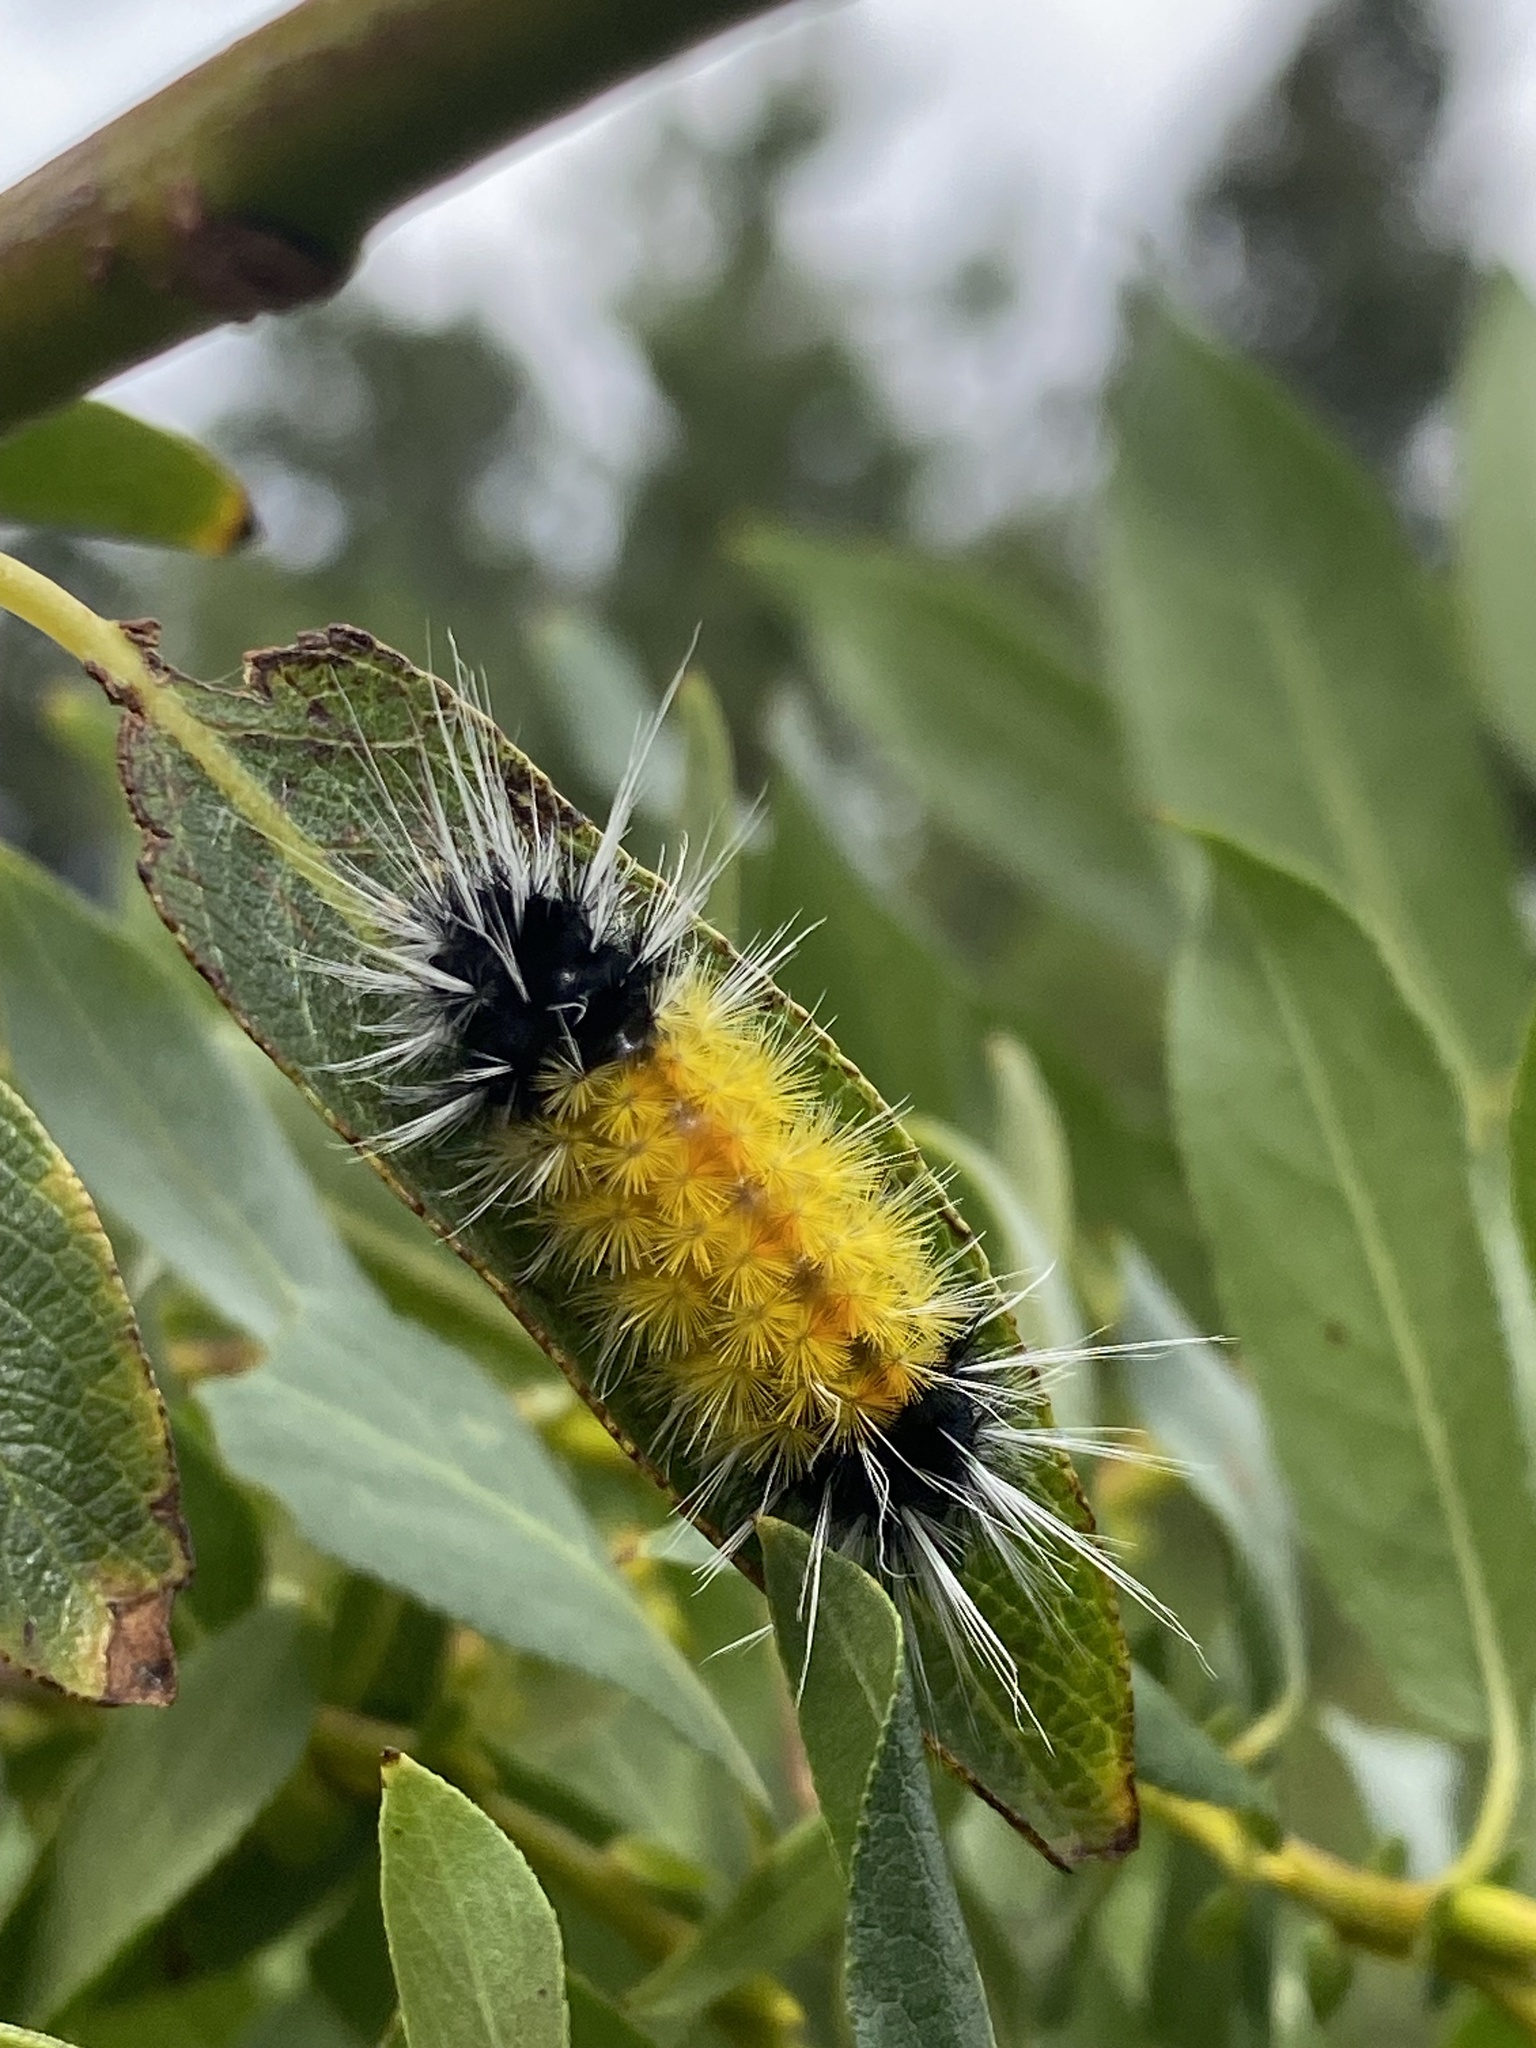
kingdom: Animalia
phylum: Arthropoda
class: Insecta
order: Lepidoptera
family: Erebidae
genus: Lophocampa
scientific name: Lophocampa maculata
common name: Spotted tussock moth
